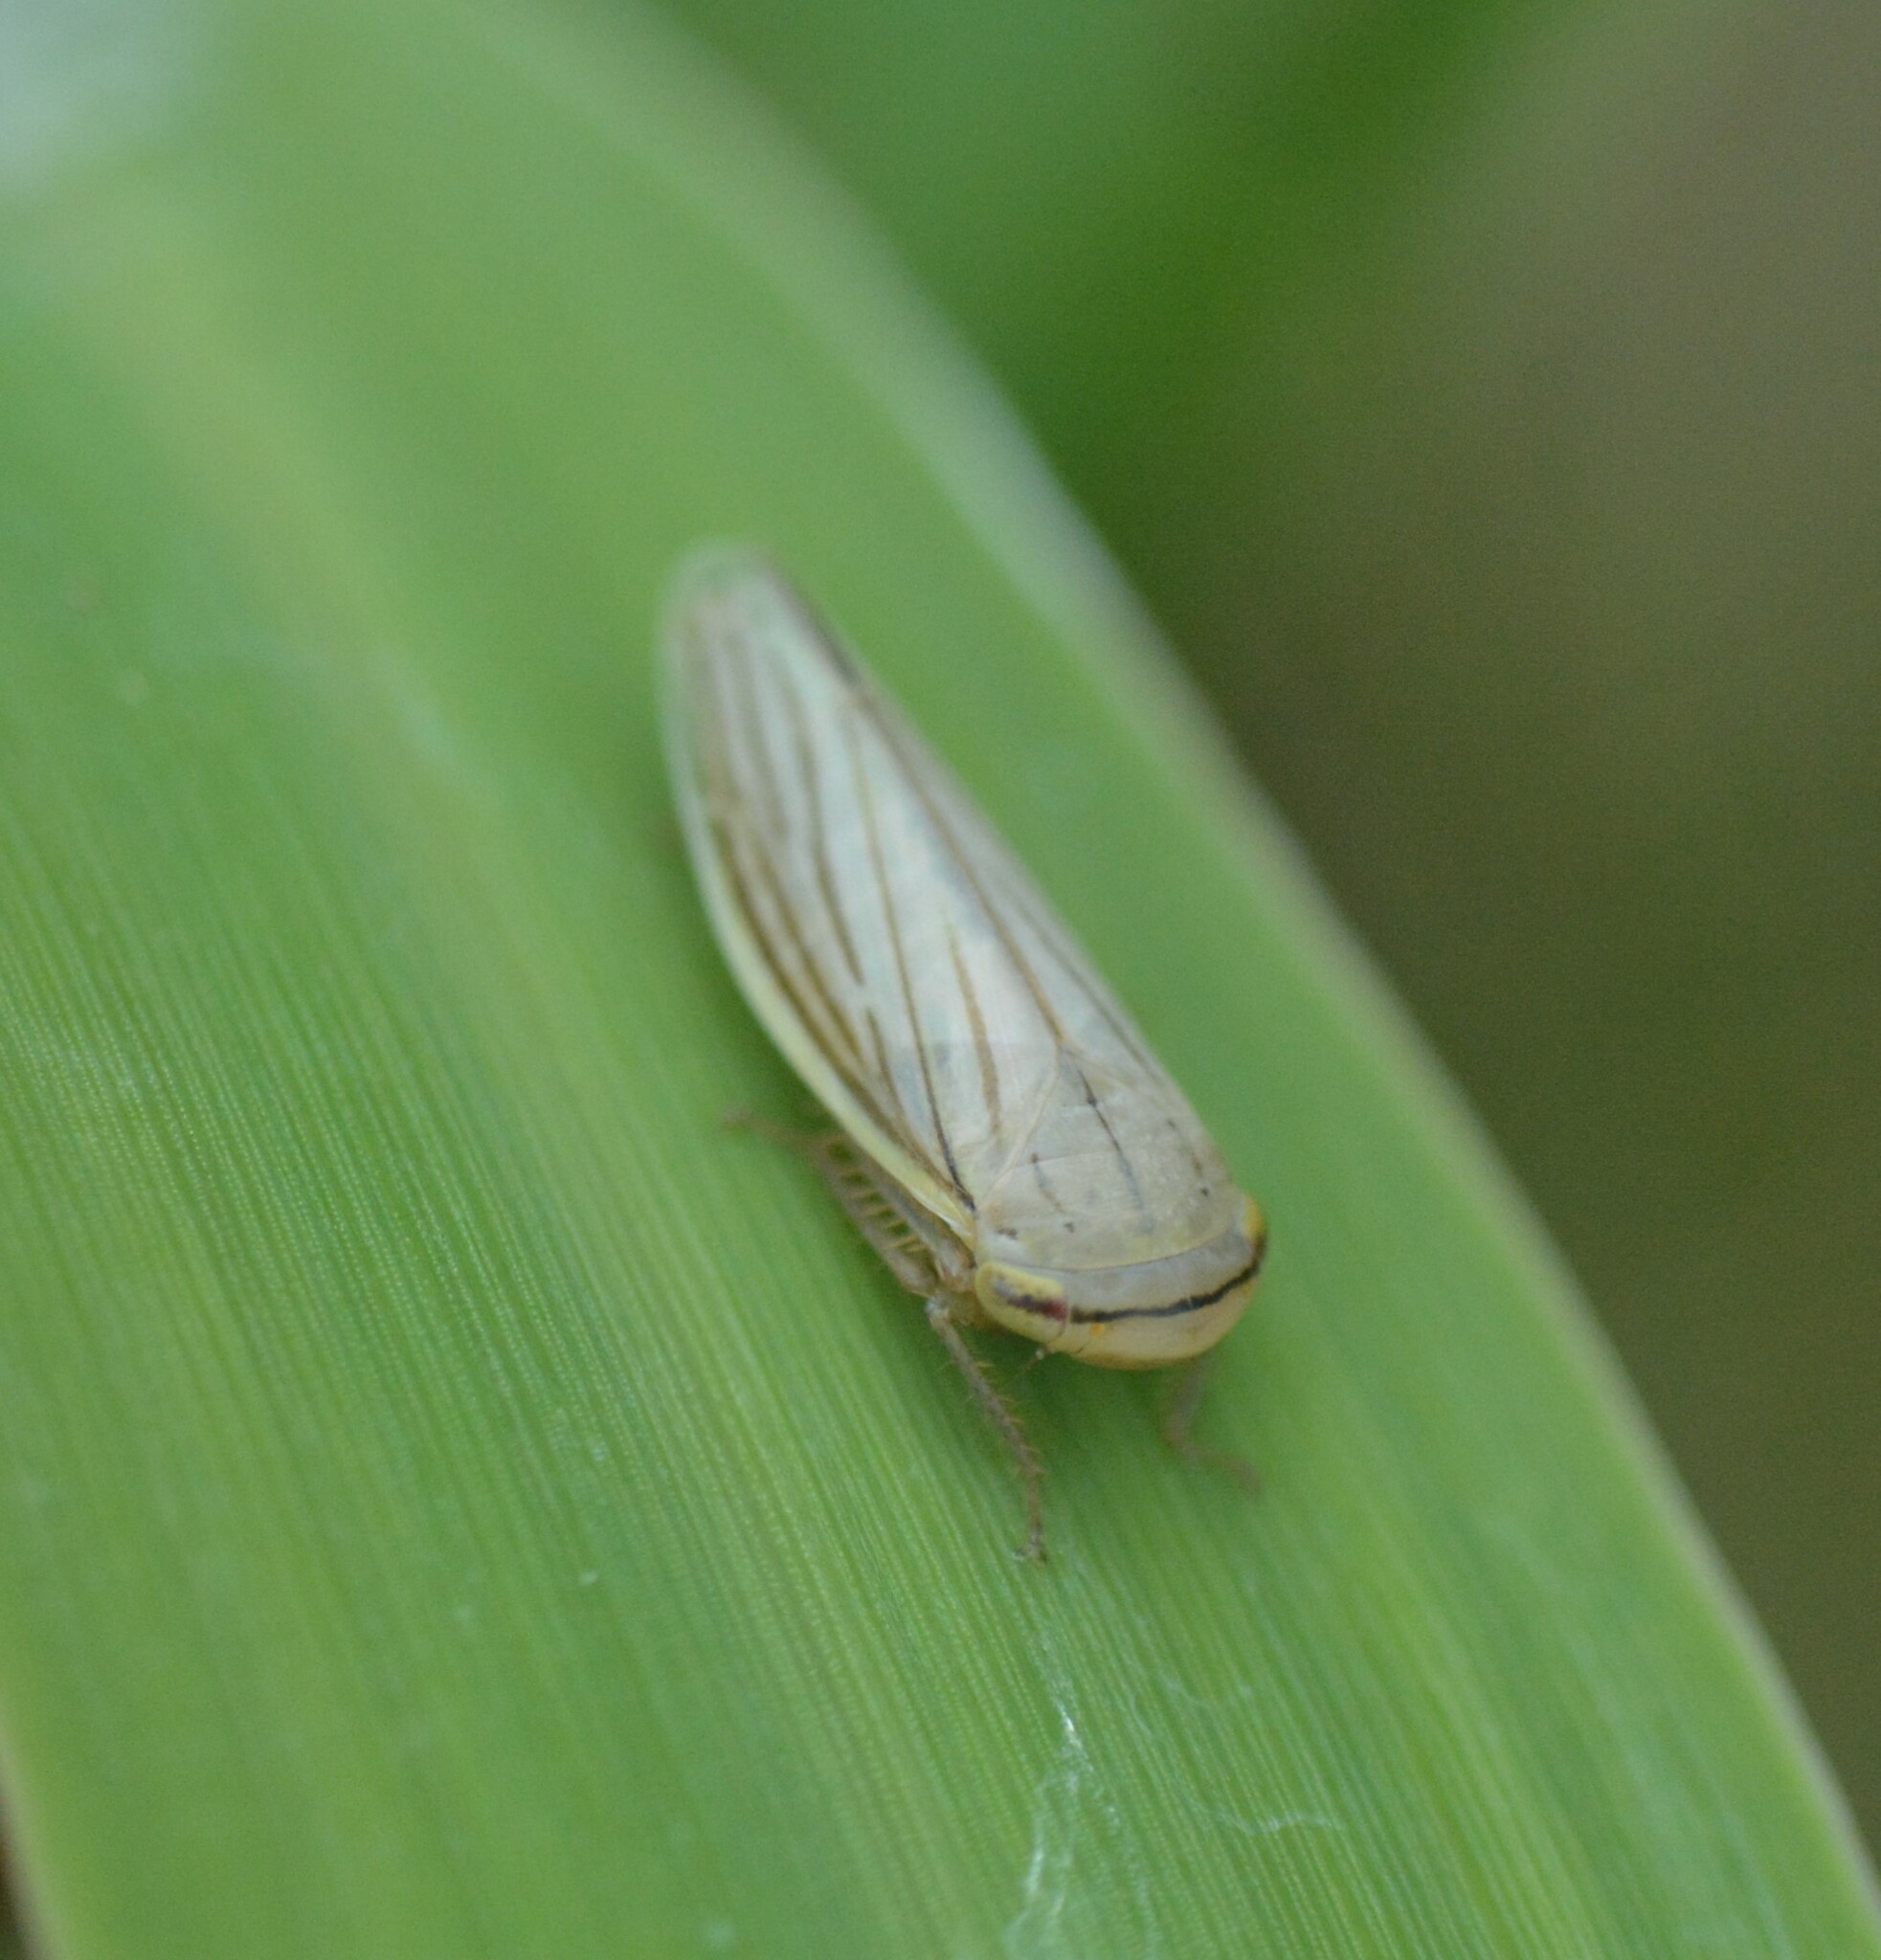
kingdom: Animalia
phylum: Arthropoda
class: Insecta
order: Hemiptera
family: Cicadellidae
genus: Athysanus
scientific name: Athysanus argentarius
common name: Silver leafhopper
